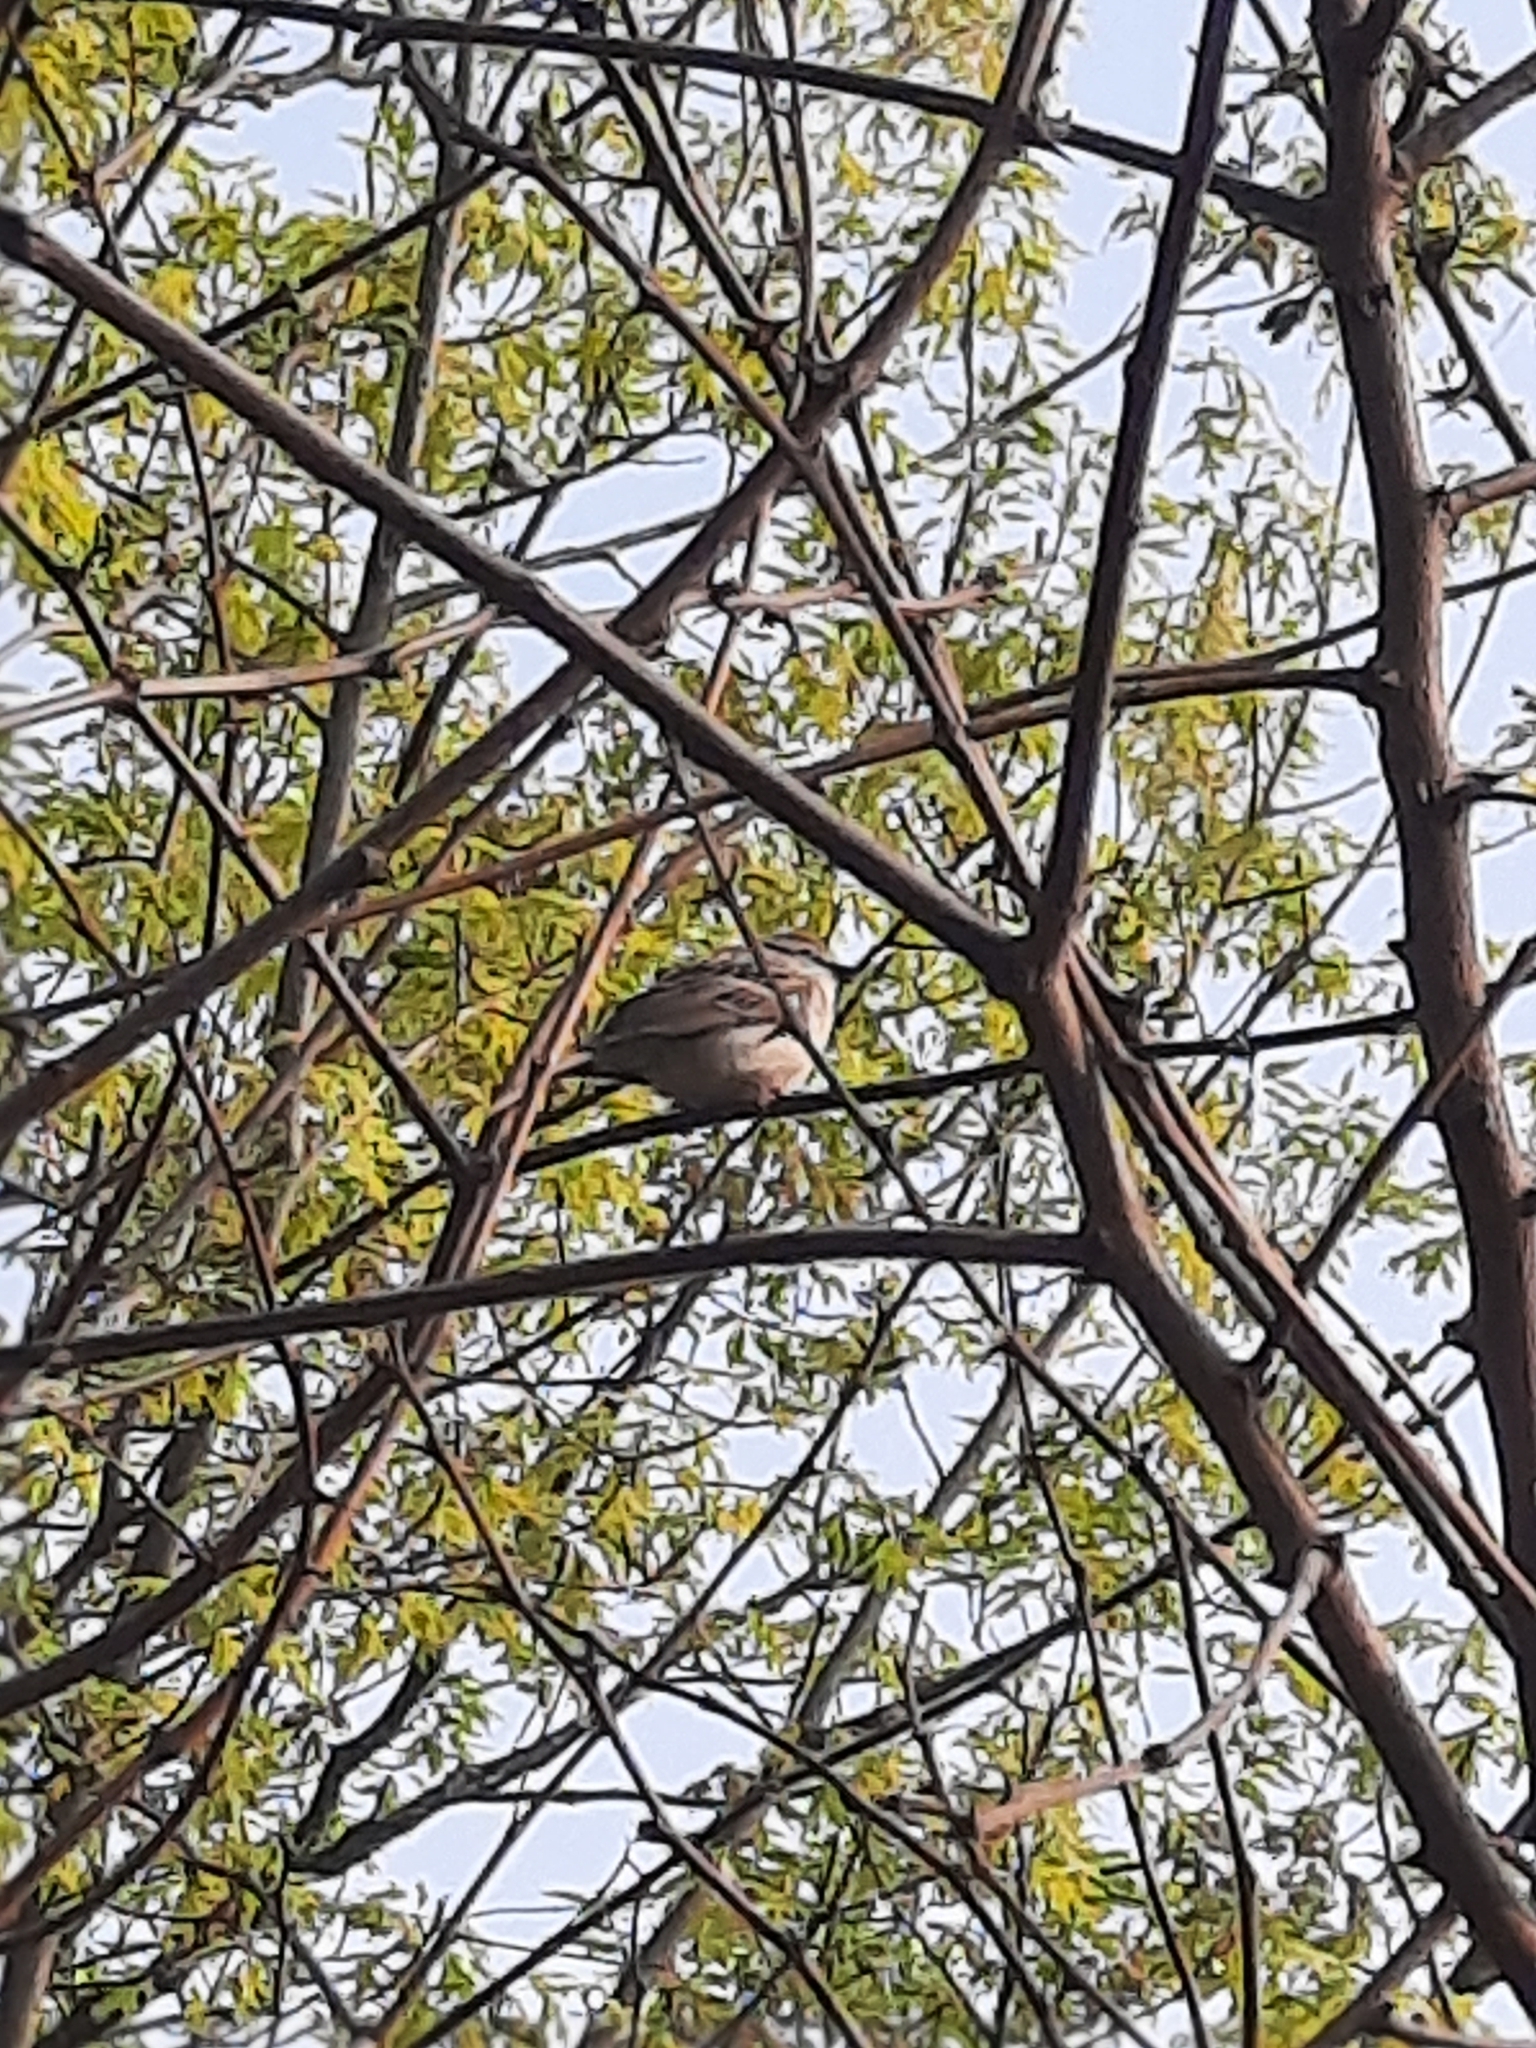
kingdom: Animalia
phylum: Chordata
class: Aves
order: Passeriformes
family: Passerellidae
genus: Spizella
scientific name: Spizella passerina
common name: Chipping sparrow
